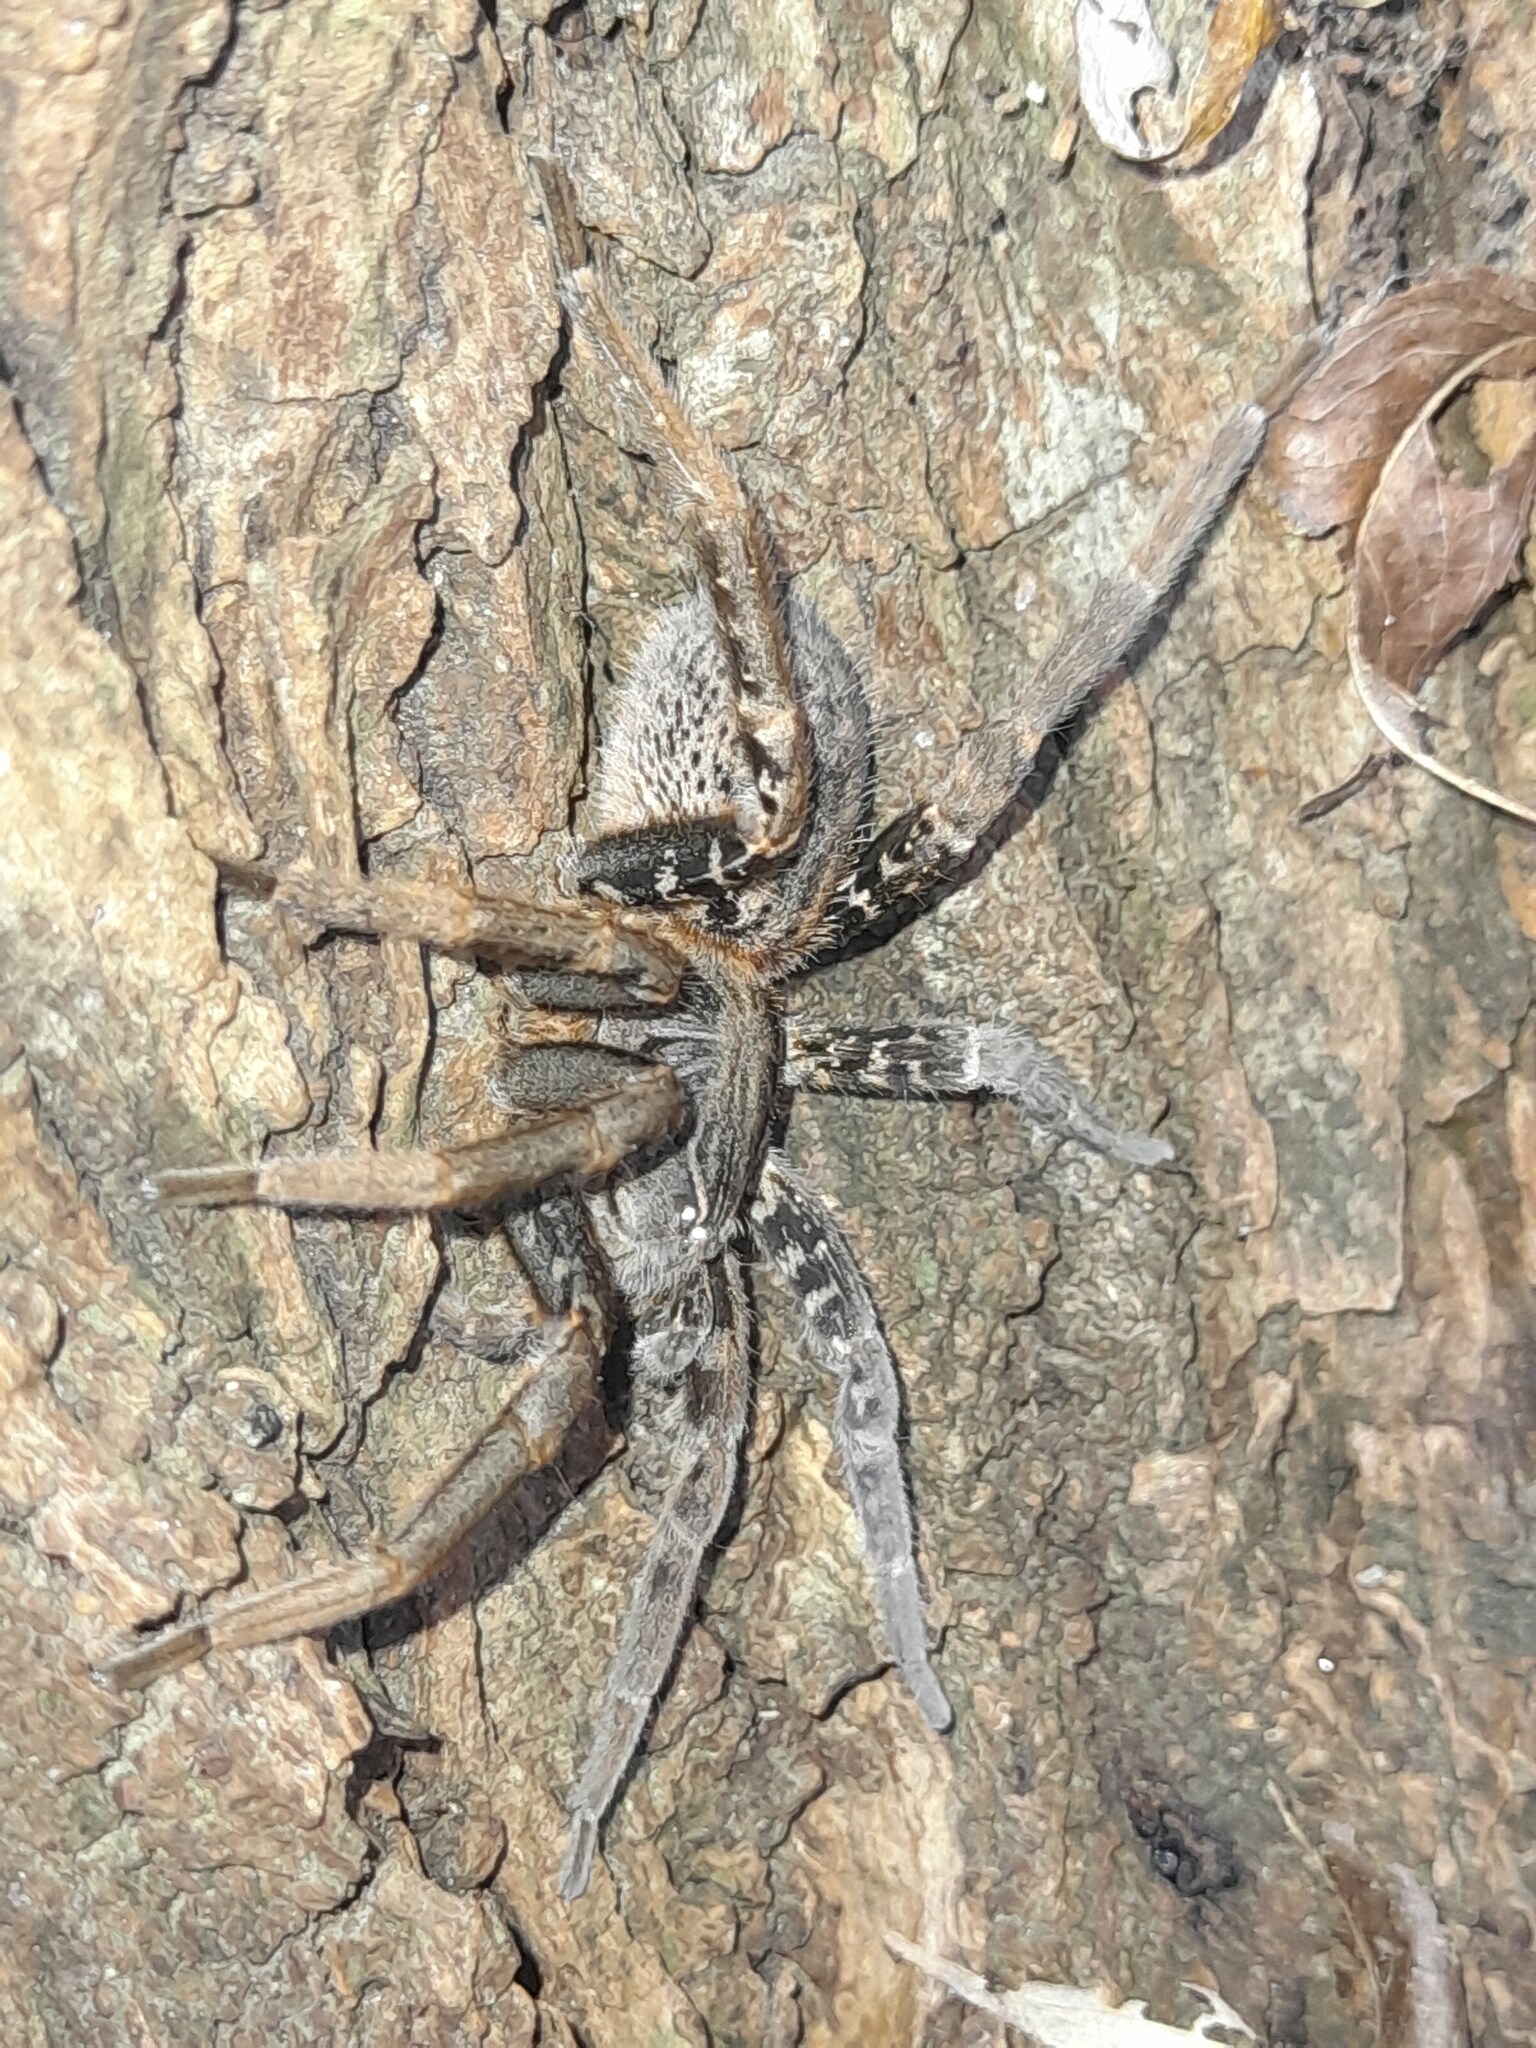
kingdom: Animalia
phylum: Arthropoda
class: Arachnida
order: Araneae
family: Ctenidae
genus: Ancylometes
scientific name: Ancylometes concolor
